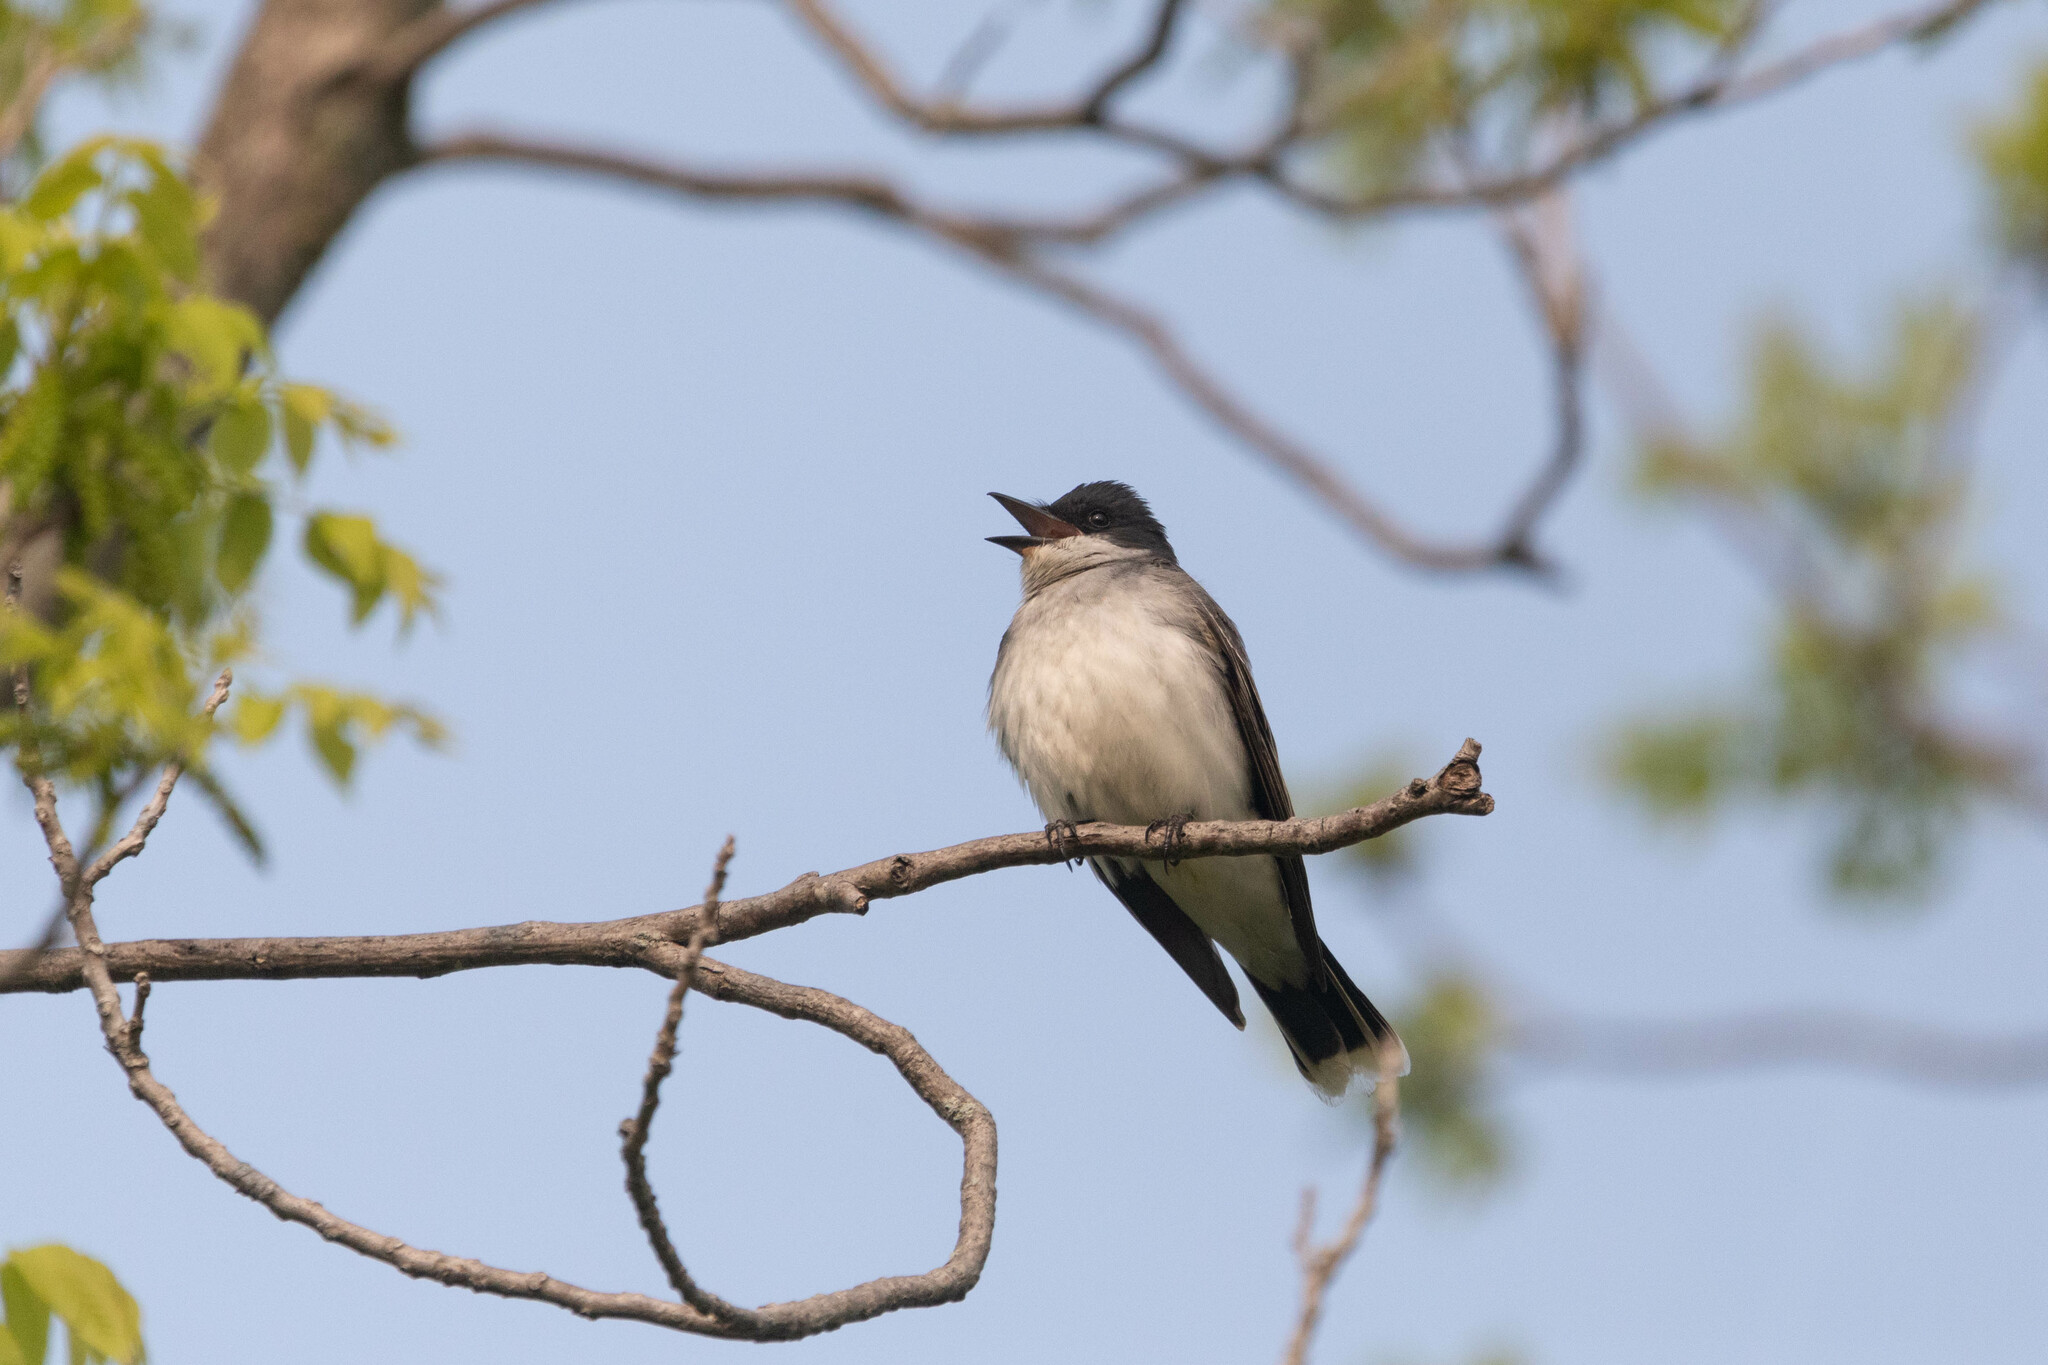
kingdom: Animalia
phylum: Chordata
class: Aves
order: Passeriformes
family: Tyrannidae
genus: Tyrannus
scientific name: Tyrannus tyrannus
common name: Eastern kingbird
